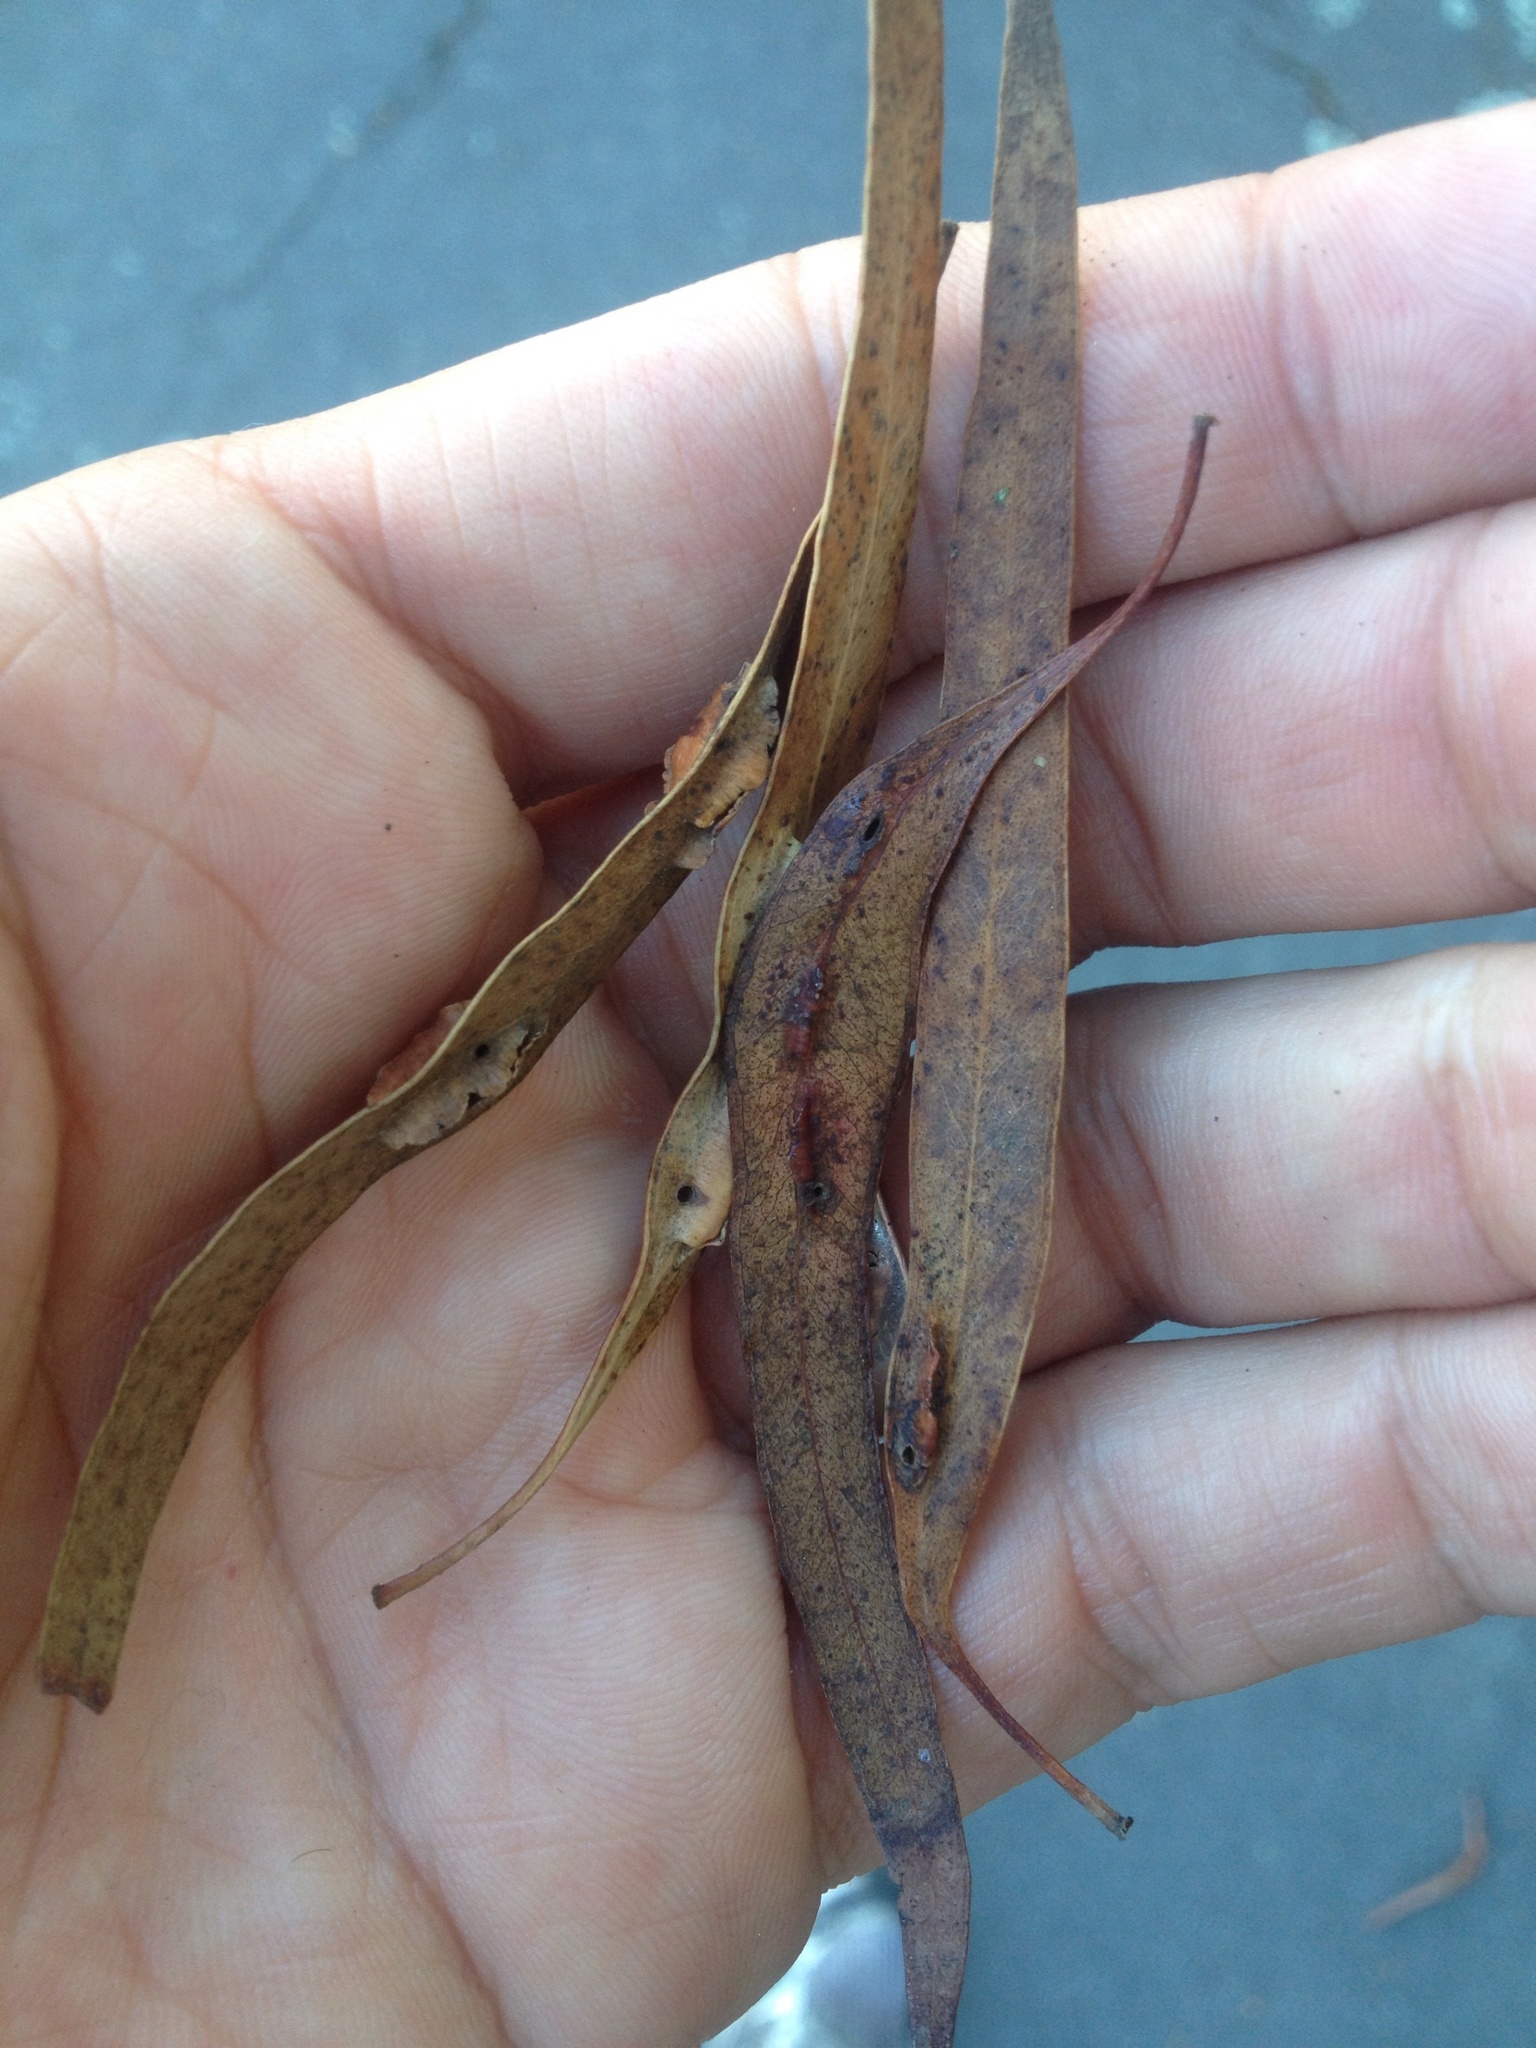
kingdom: Animalia
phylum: Arthropoda
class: Insecta
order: Hymenoptera
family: Pteromalidae
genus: Nambouria
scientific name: Nambouria xanthops
